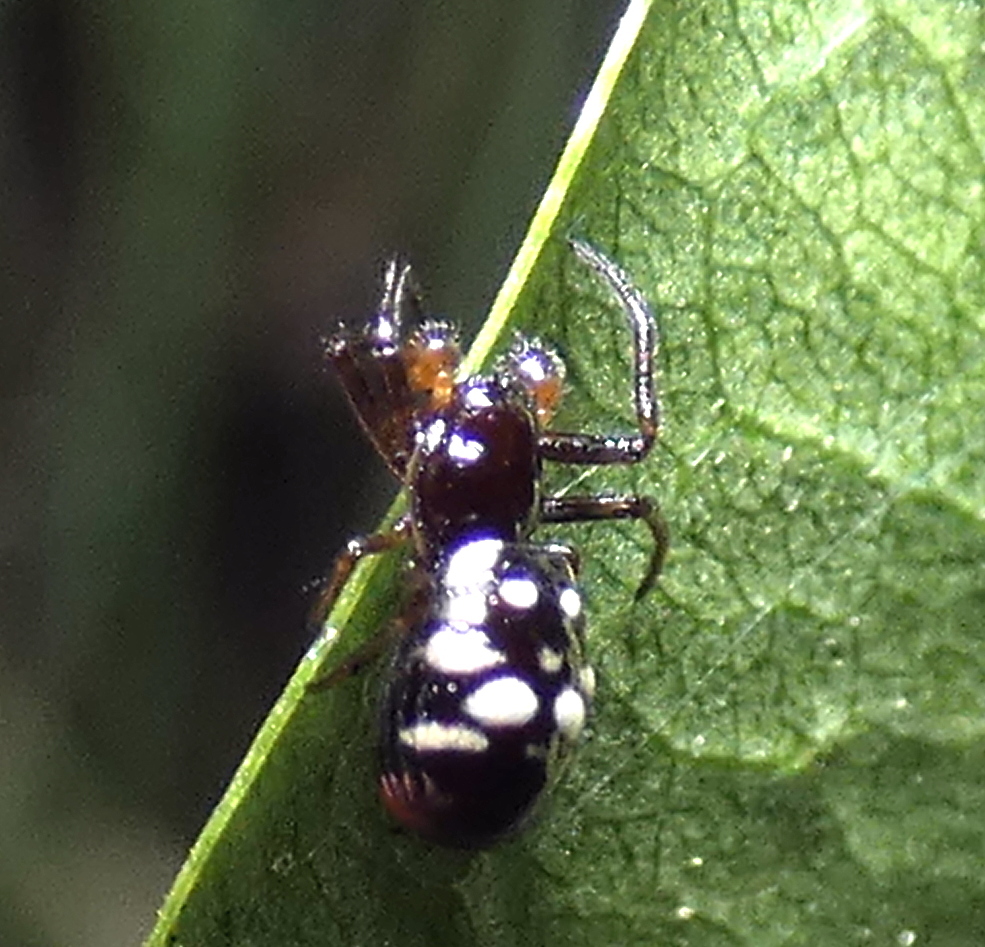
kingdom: Animalia
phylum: Arthropoda
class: Arachnida
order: Araneae
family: Araneidae
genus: Micrathena
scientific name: Micrathena patruelis
